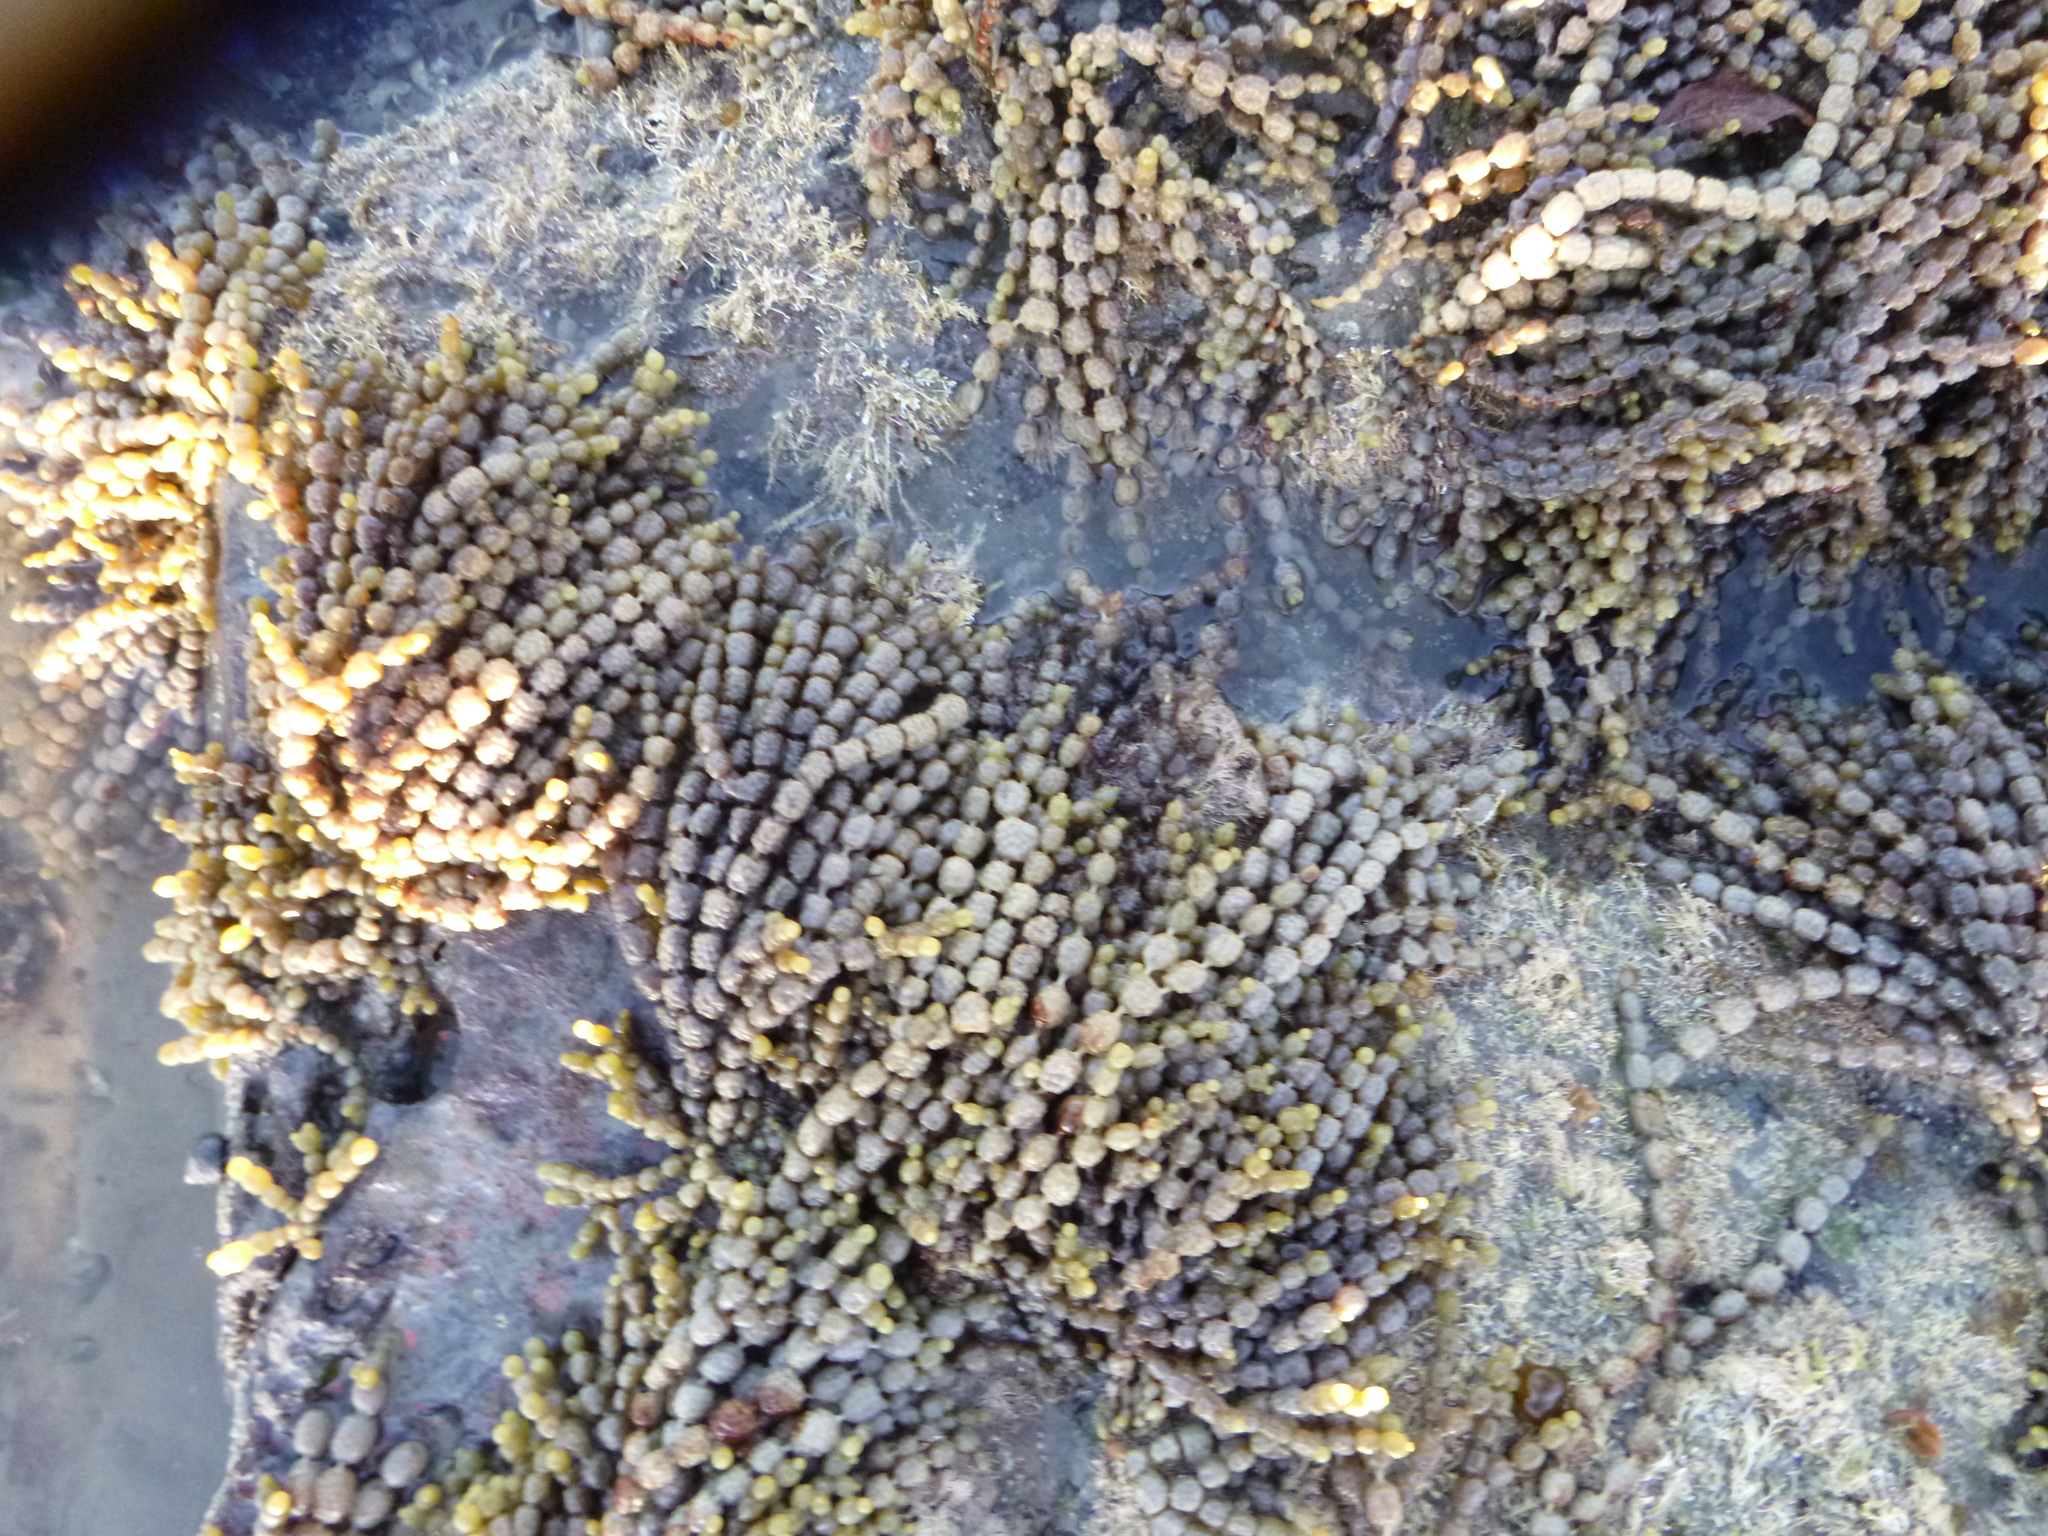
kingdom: Chromista
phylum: Ochrophyta
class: Phaeophyceae
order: Fucales
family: Hormosiraceae
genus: Hormosira
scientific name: Hormosira banksii
